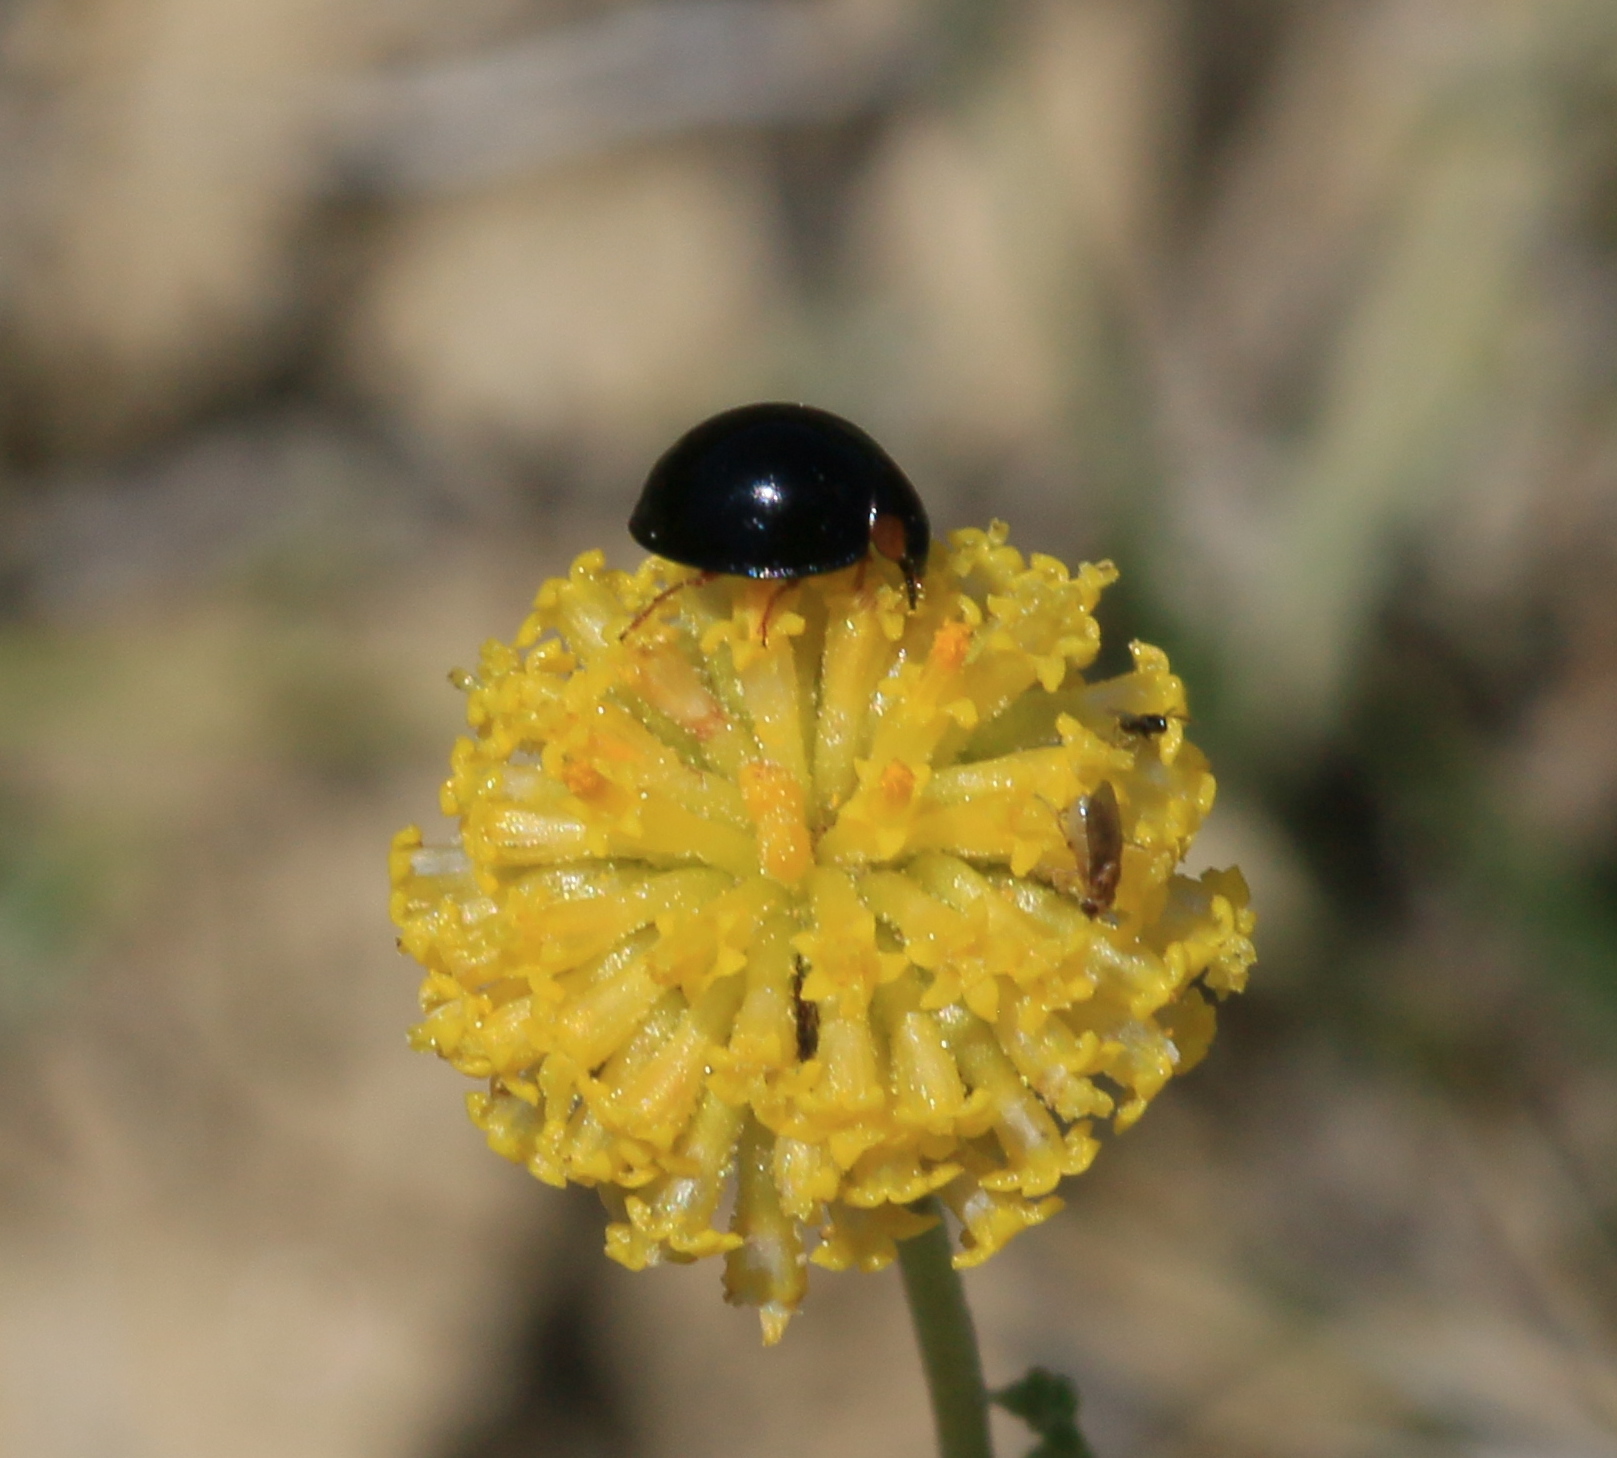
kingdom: Animalia
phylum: Arthropoda
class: Insecta
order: Coleoptera
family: Coccinellidae
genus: Parexochomus
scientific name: Parexochomus nigromaculatus
